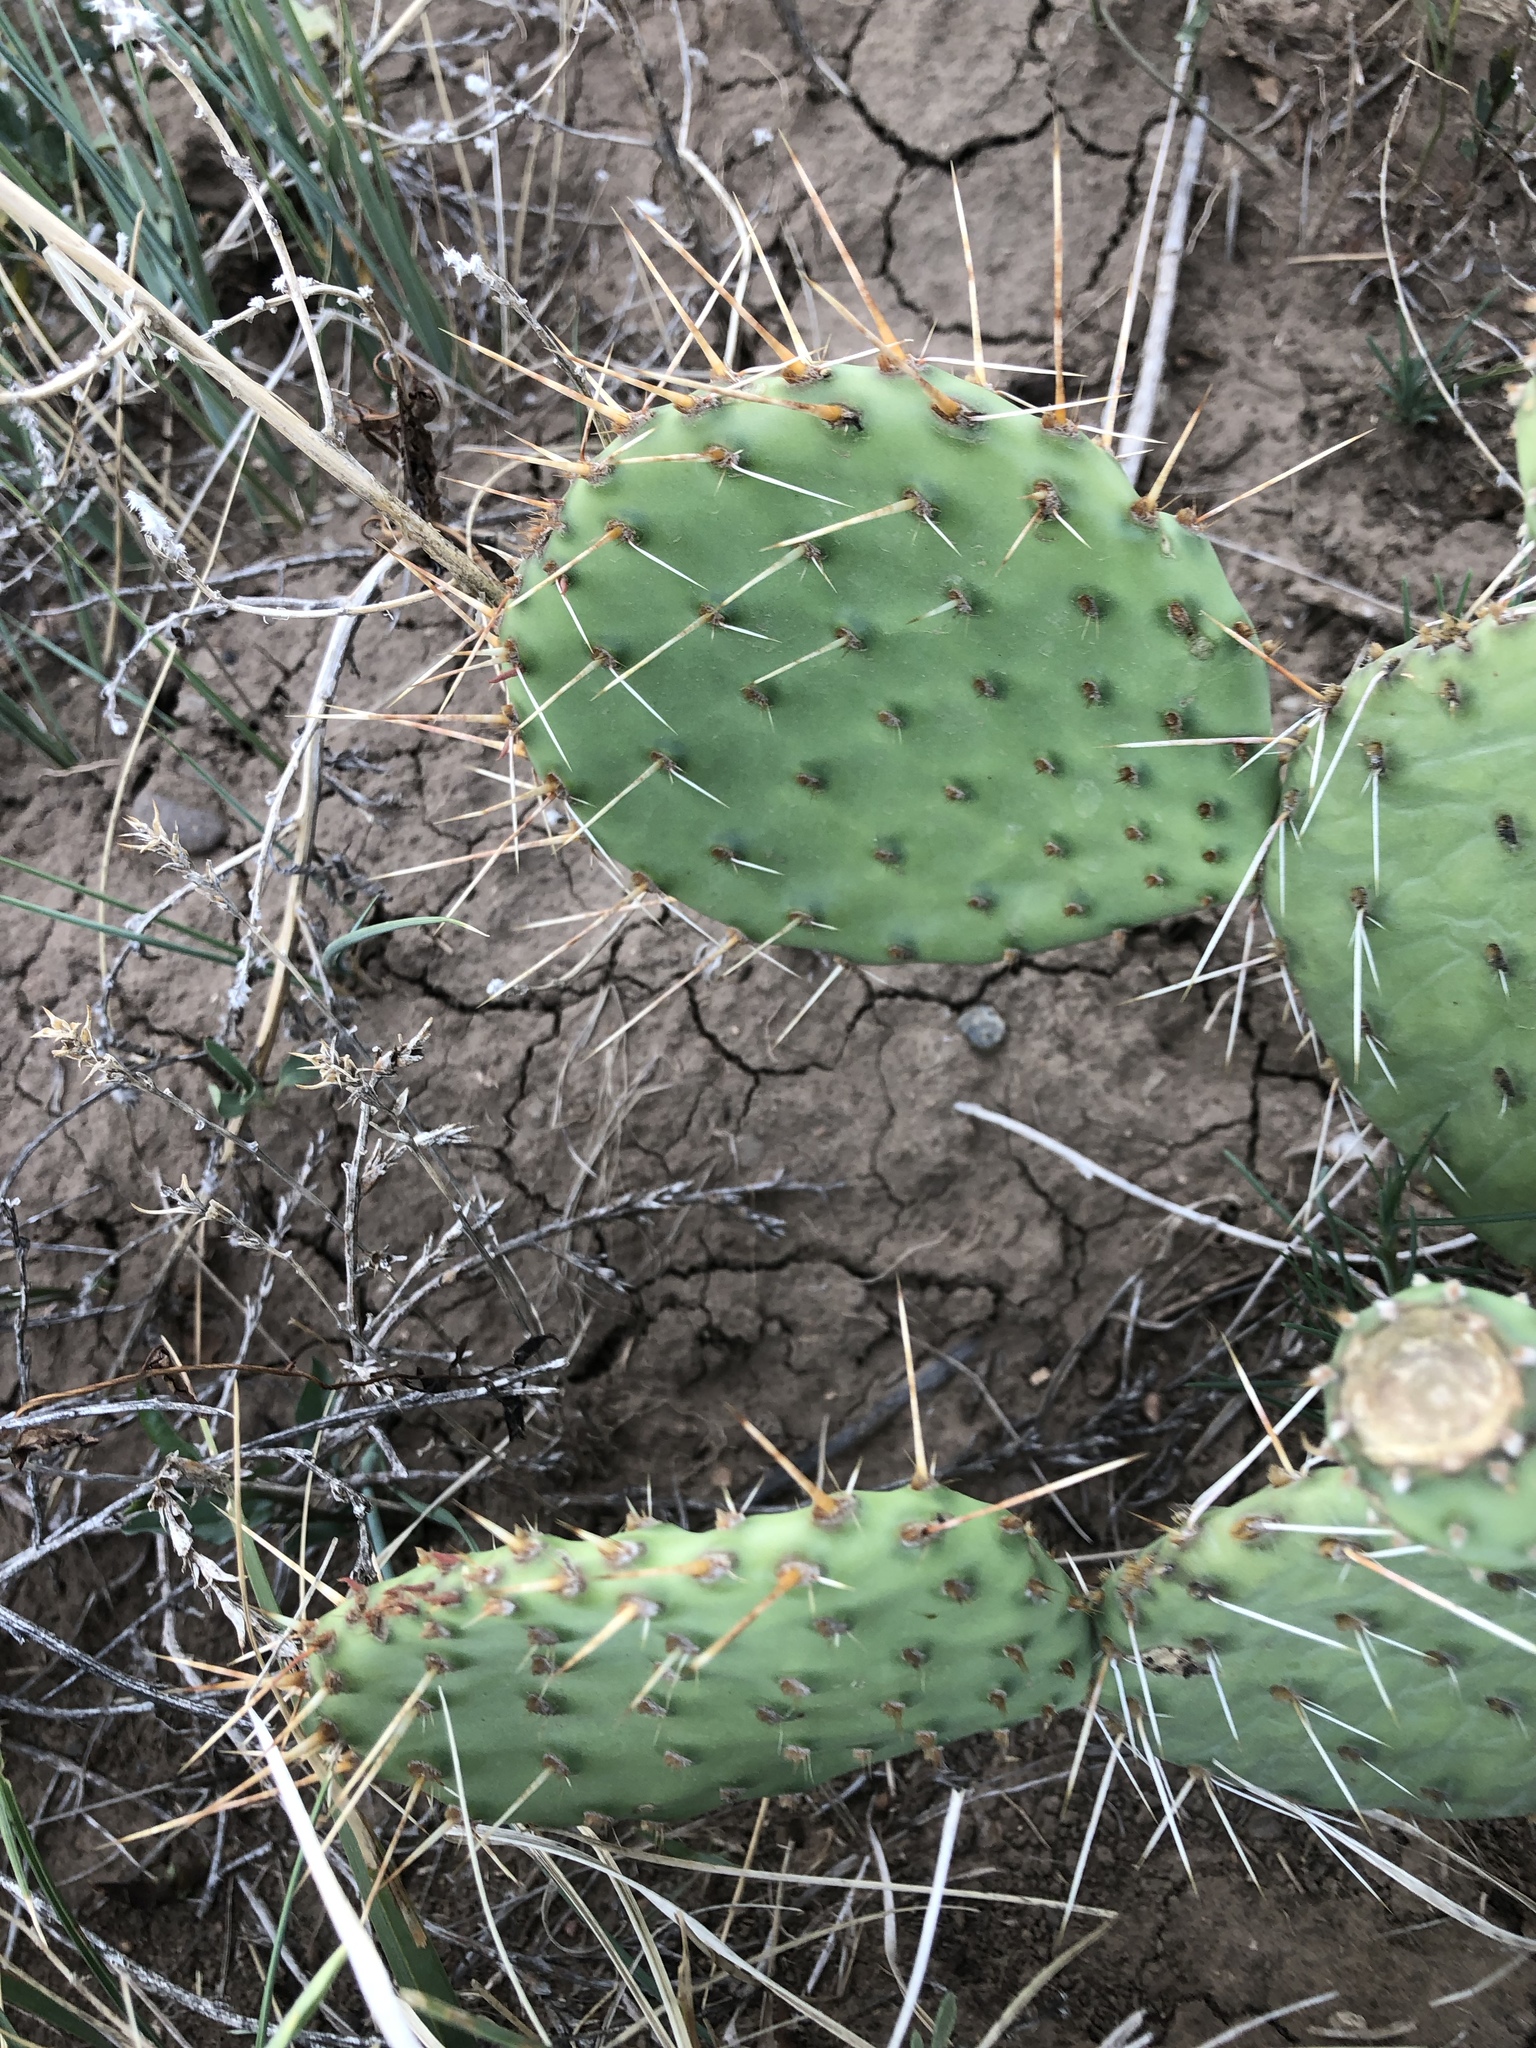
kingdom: Plantae
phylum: Tracheophyta
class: Magnoliopsida
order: Caryophyllales
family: Cactaceae
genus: Opuntia
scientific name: Opuntia polyacantha
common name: Plains prickly-pear
